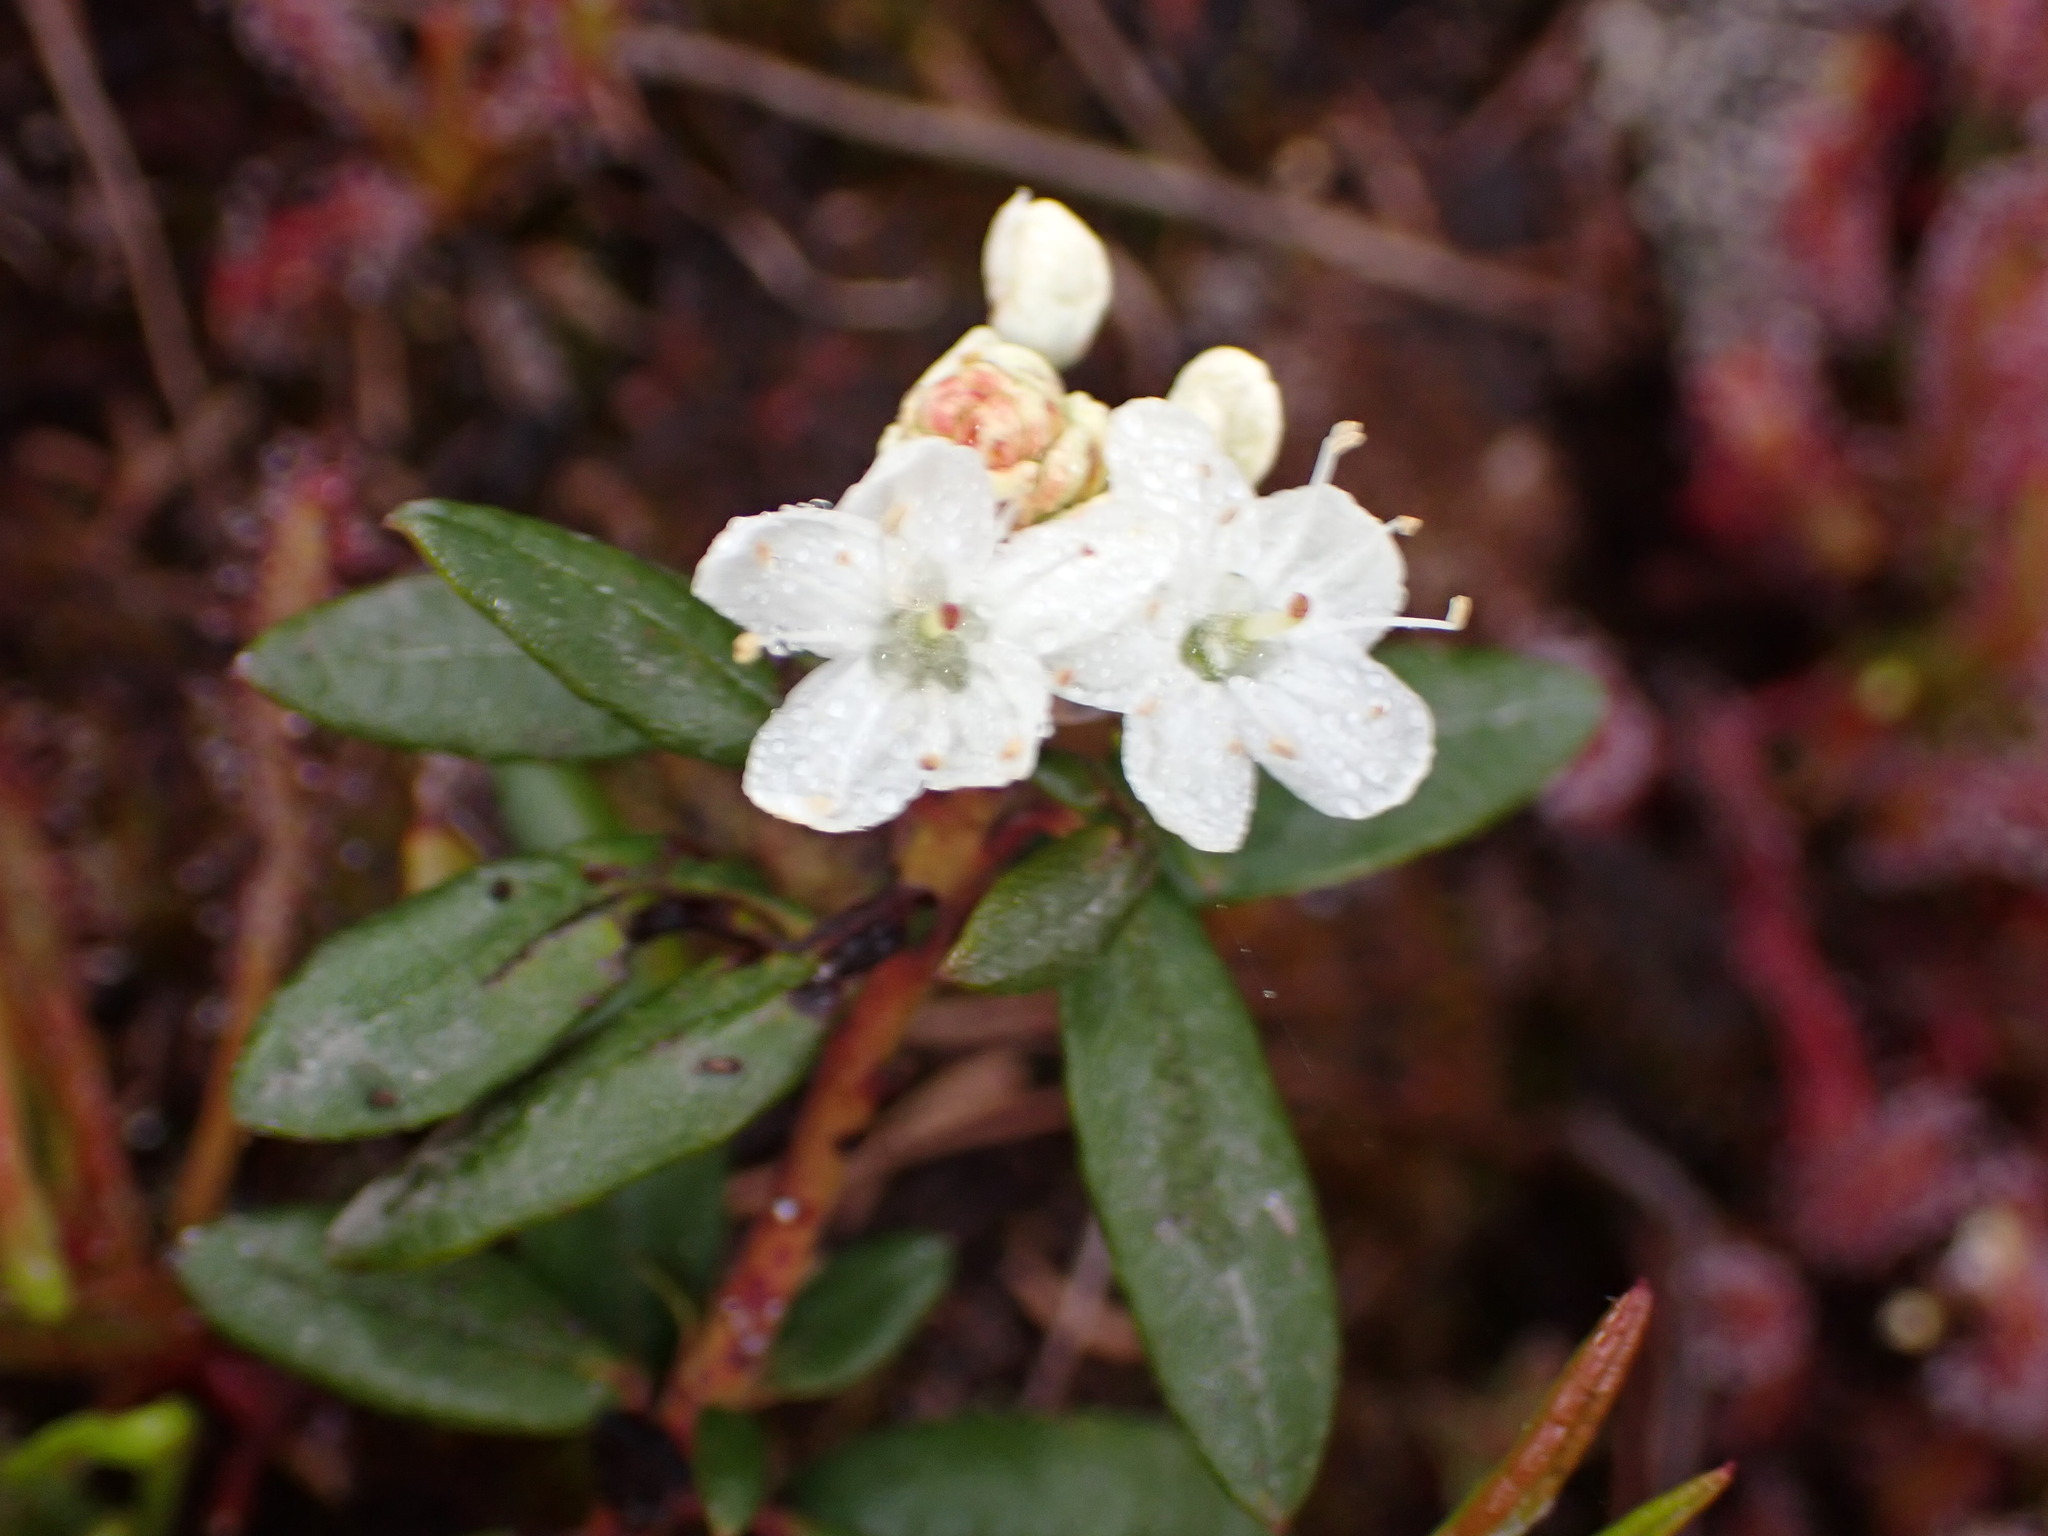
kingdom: Plantae
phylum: Tracheophyta
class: Magnoliopsida
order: Ericales
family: Ericaceae
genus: Rhododendron
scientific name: Rhododendron columbianum
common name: Western labrador tea
